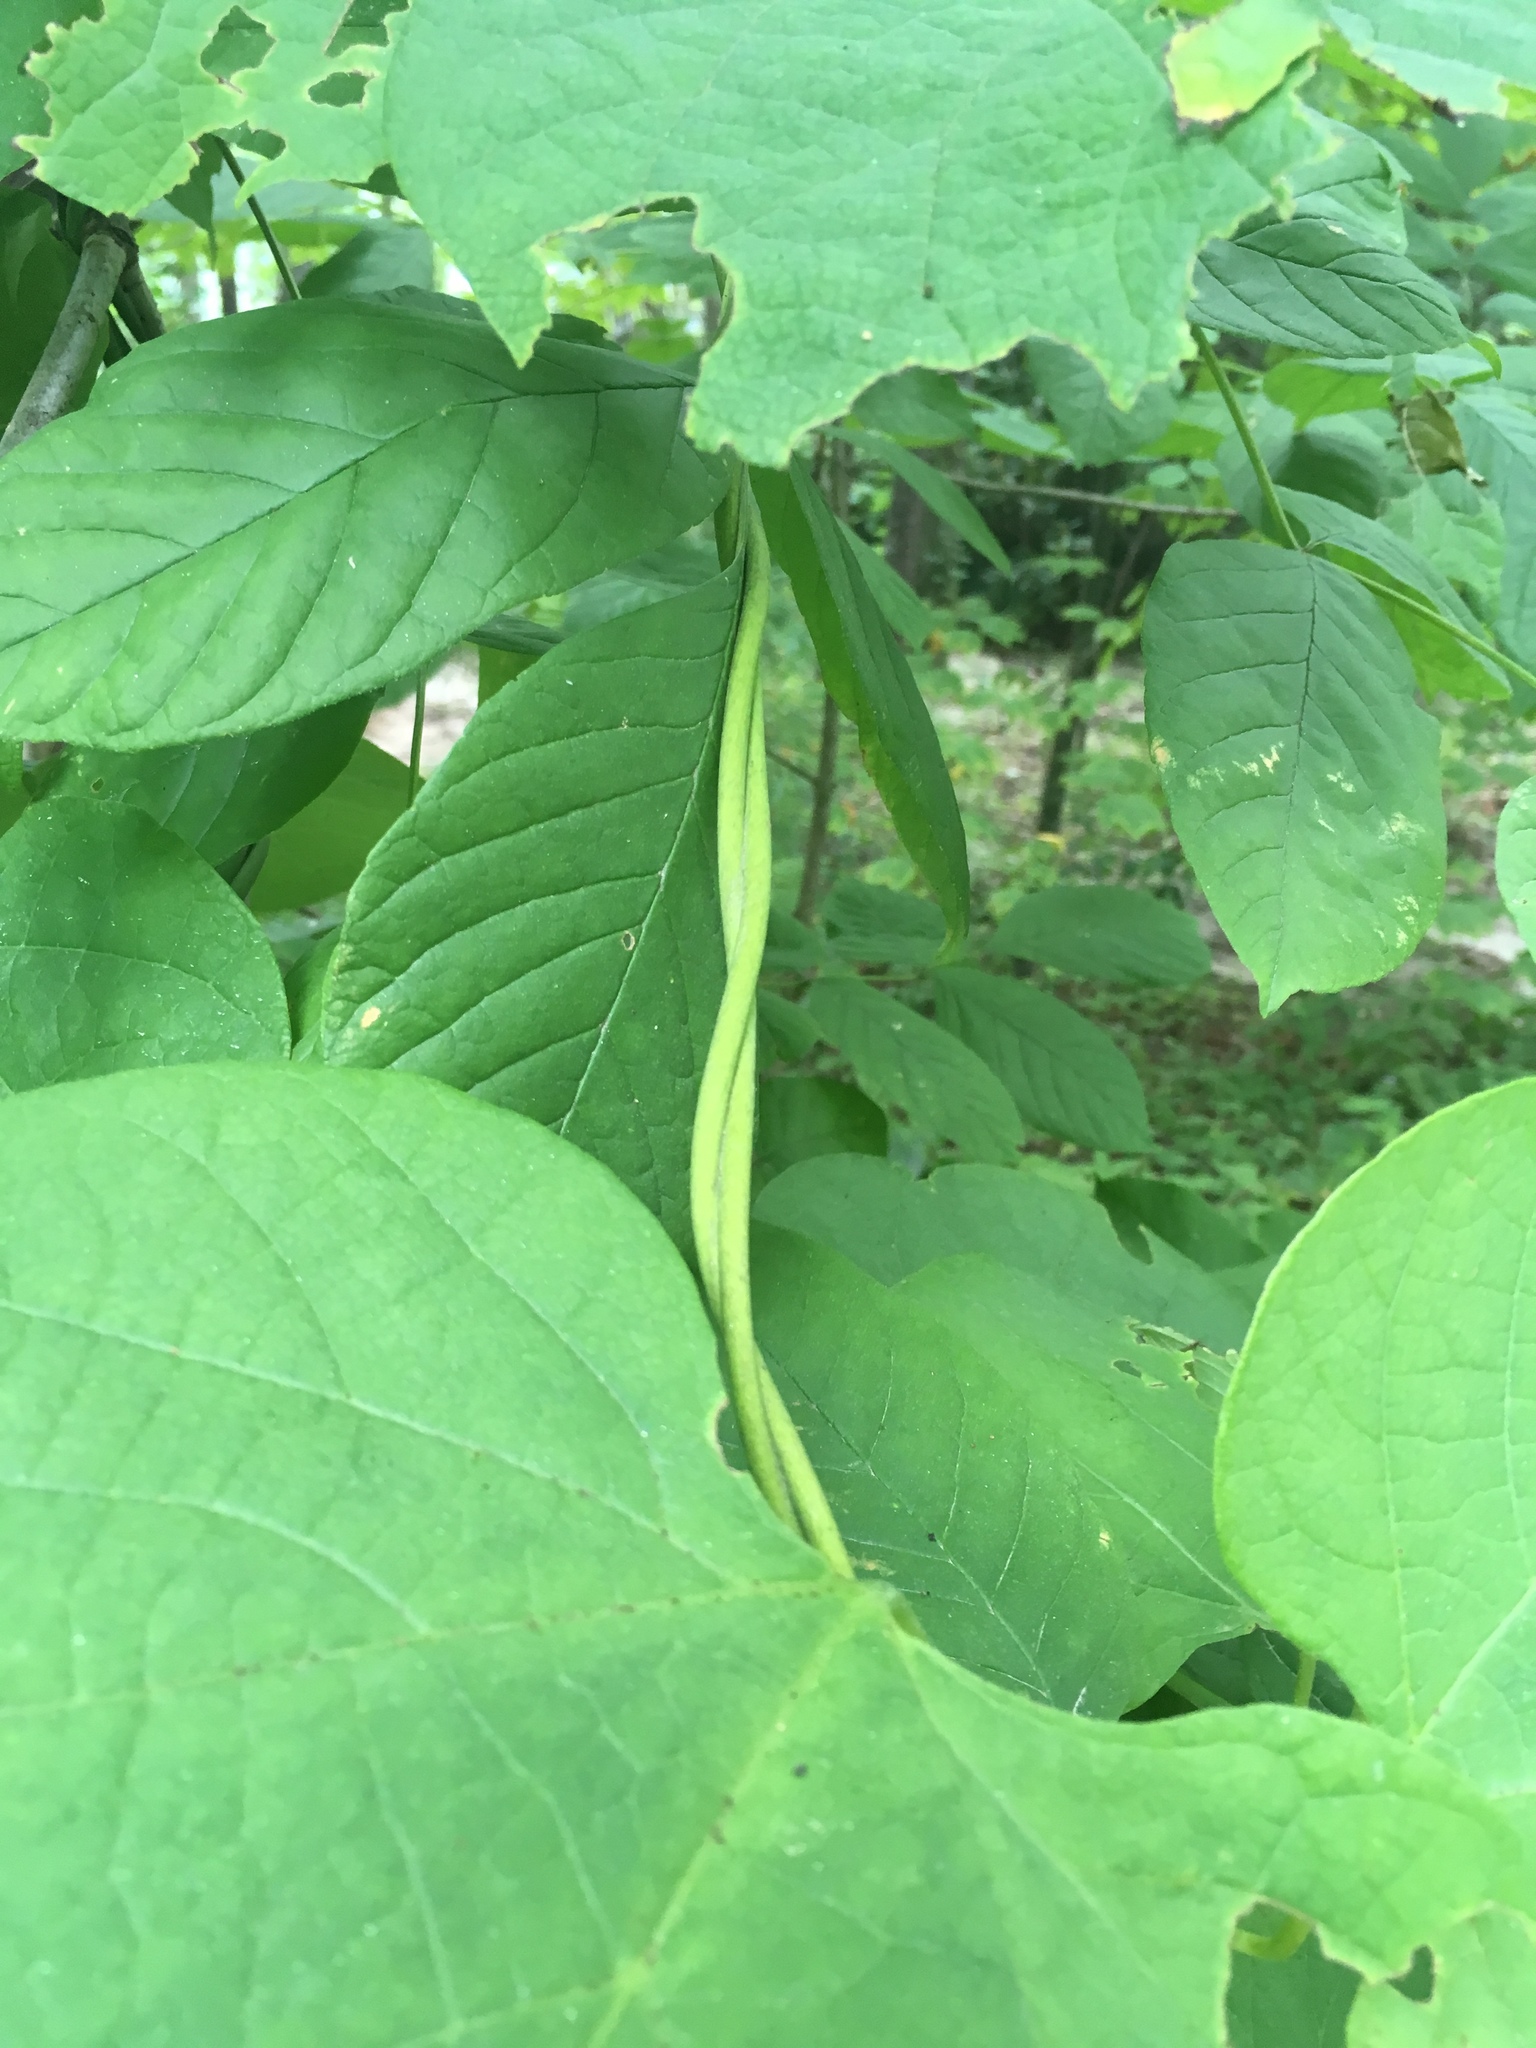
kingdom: Plantae
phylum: Tracheophyta
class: Magnoliopsida
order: Piperales
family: Aristolochiaceae
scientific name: Aristolochiaceae
